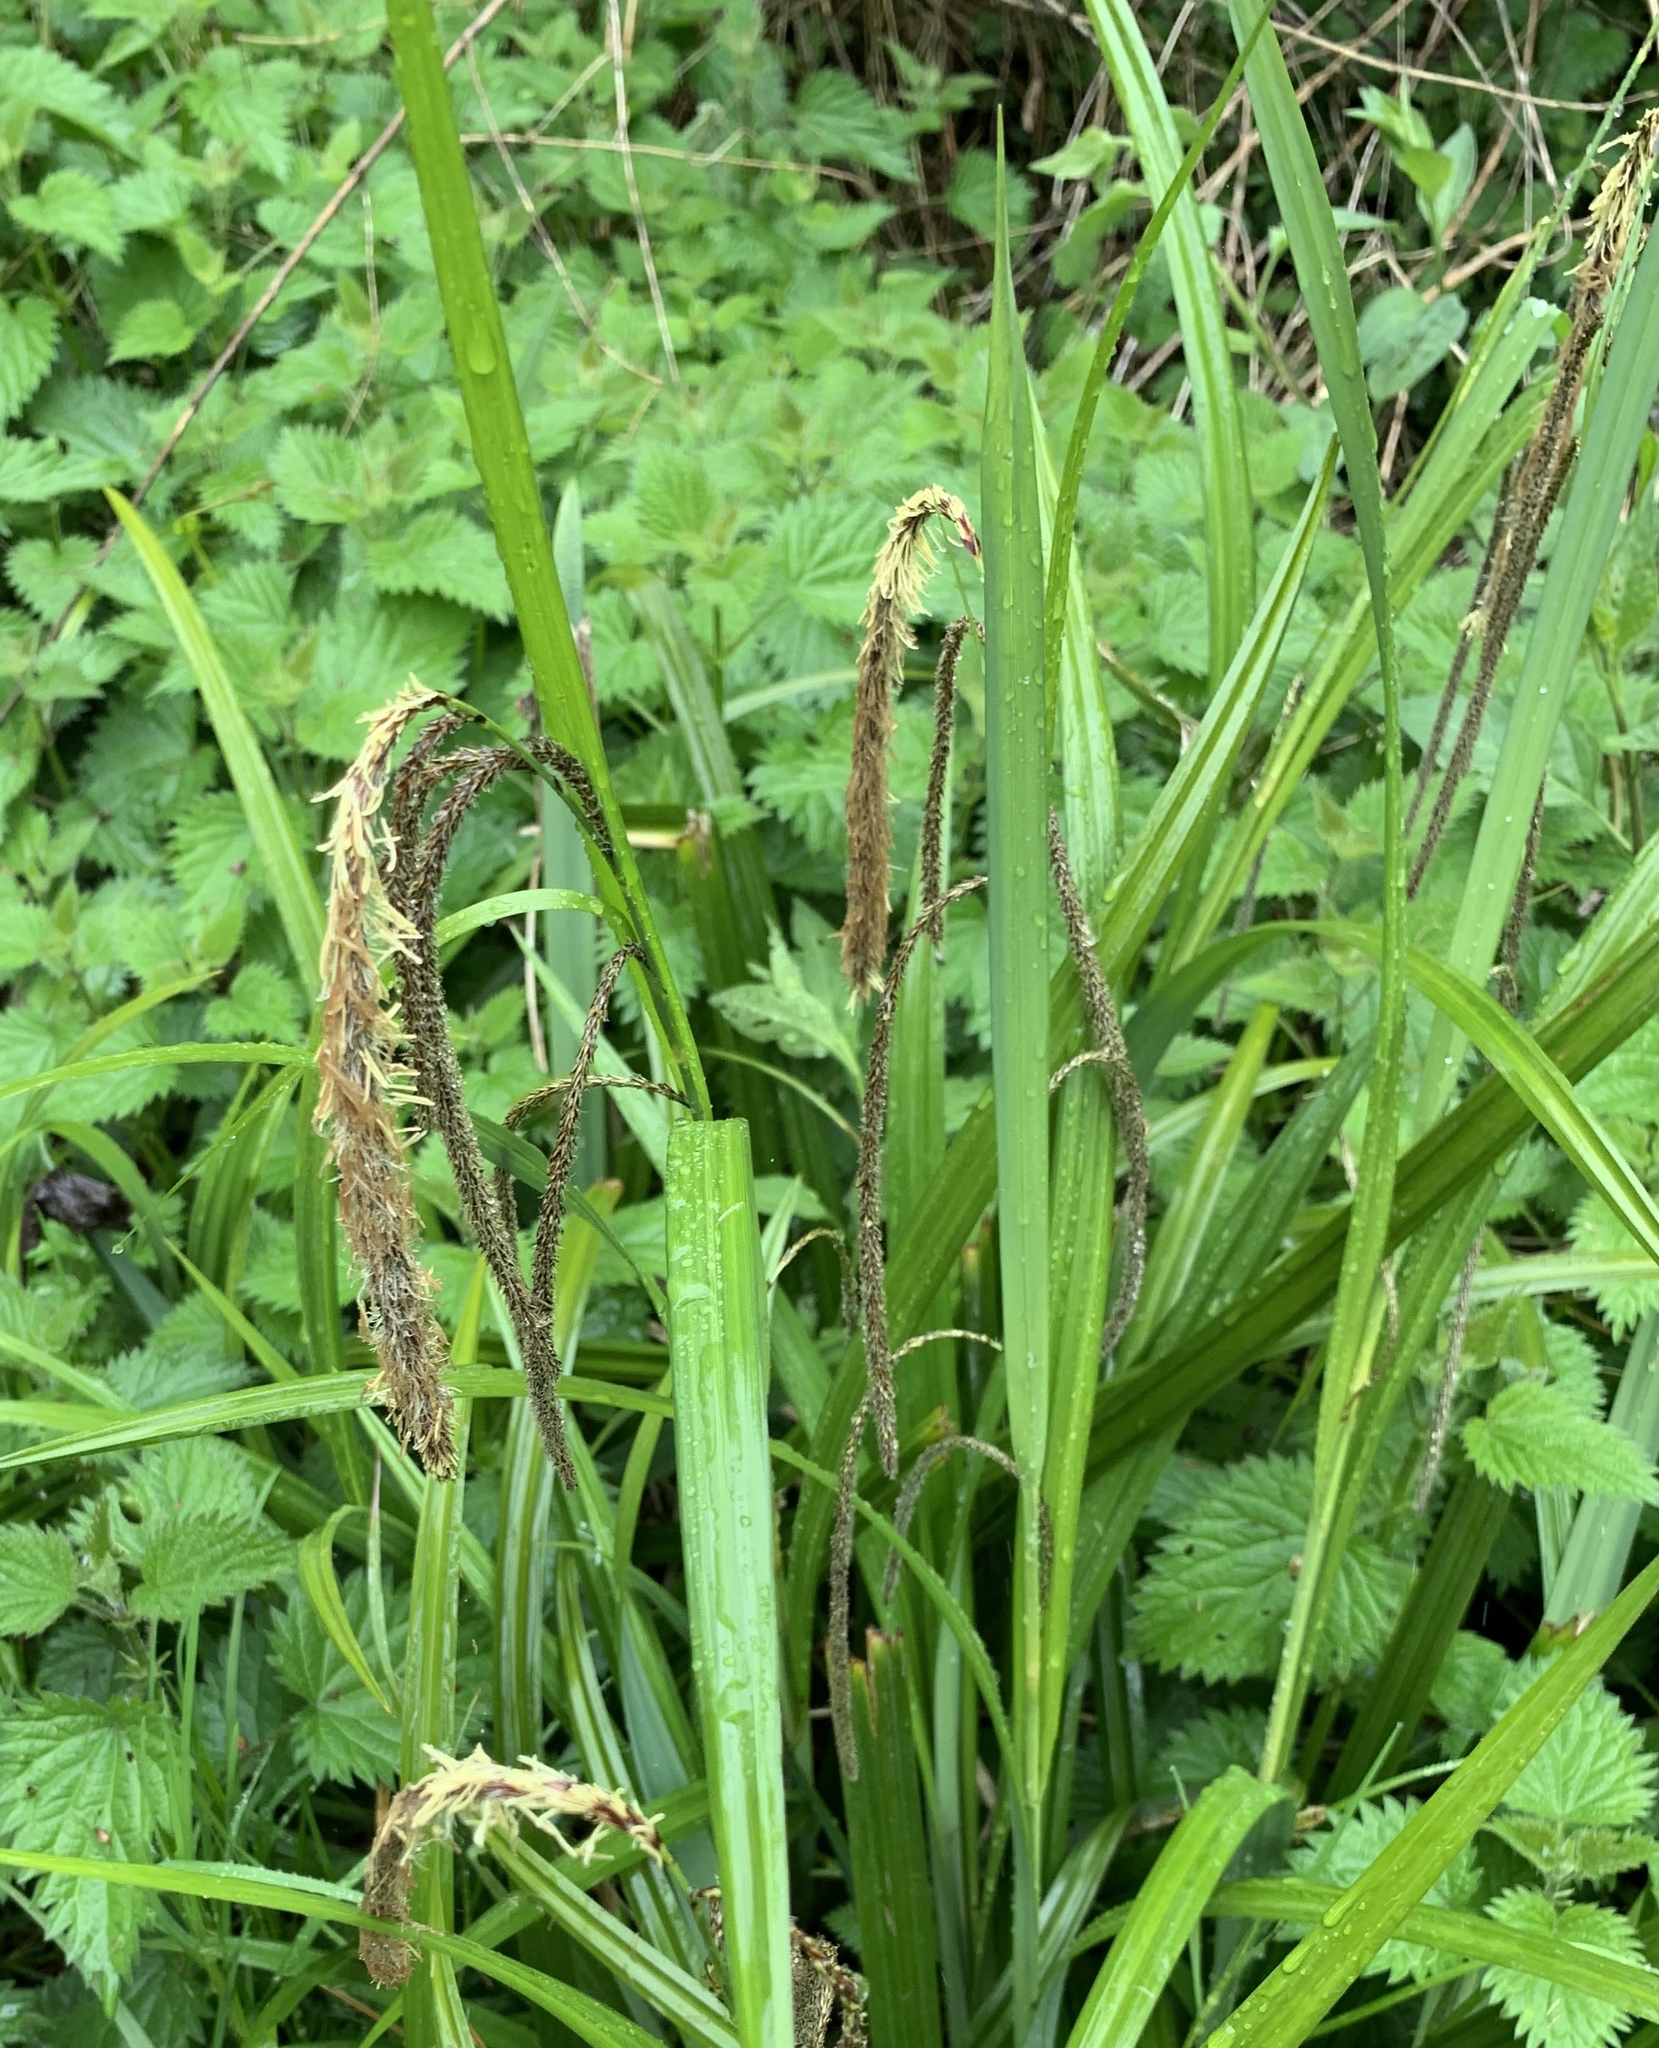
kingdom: Plantae
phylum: Tracheophyta
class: Liliopsida
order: Poales
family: Cyperaceae
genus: Carex
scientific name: Carex pendula
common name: Pendulous sedge
